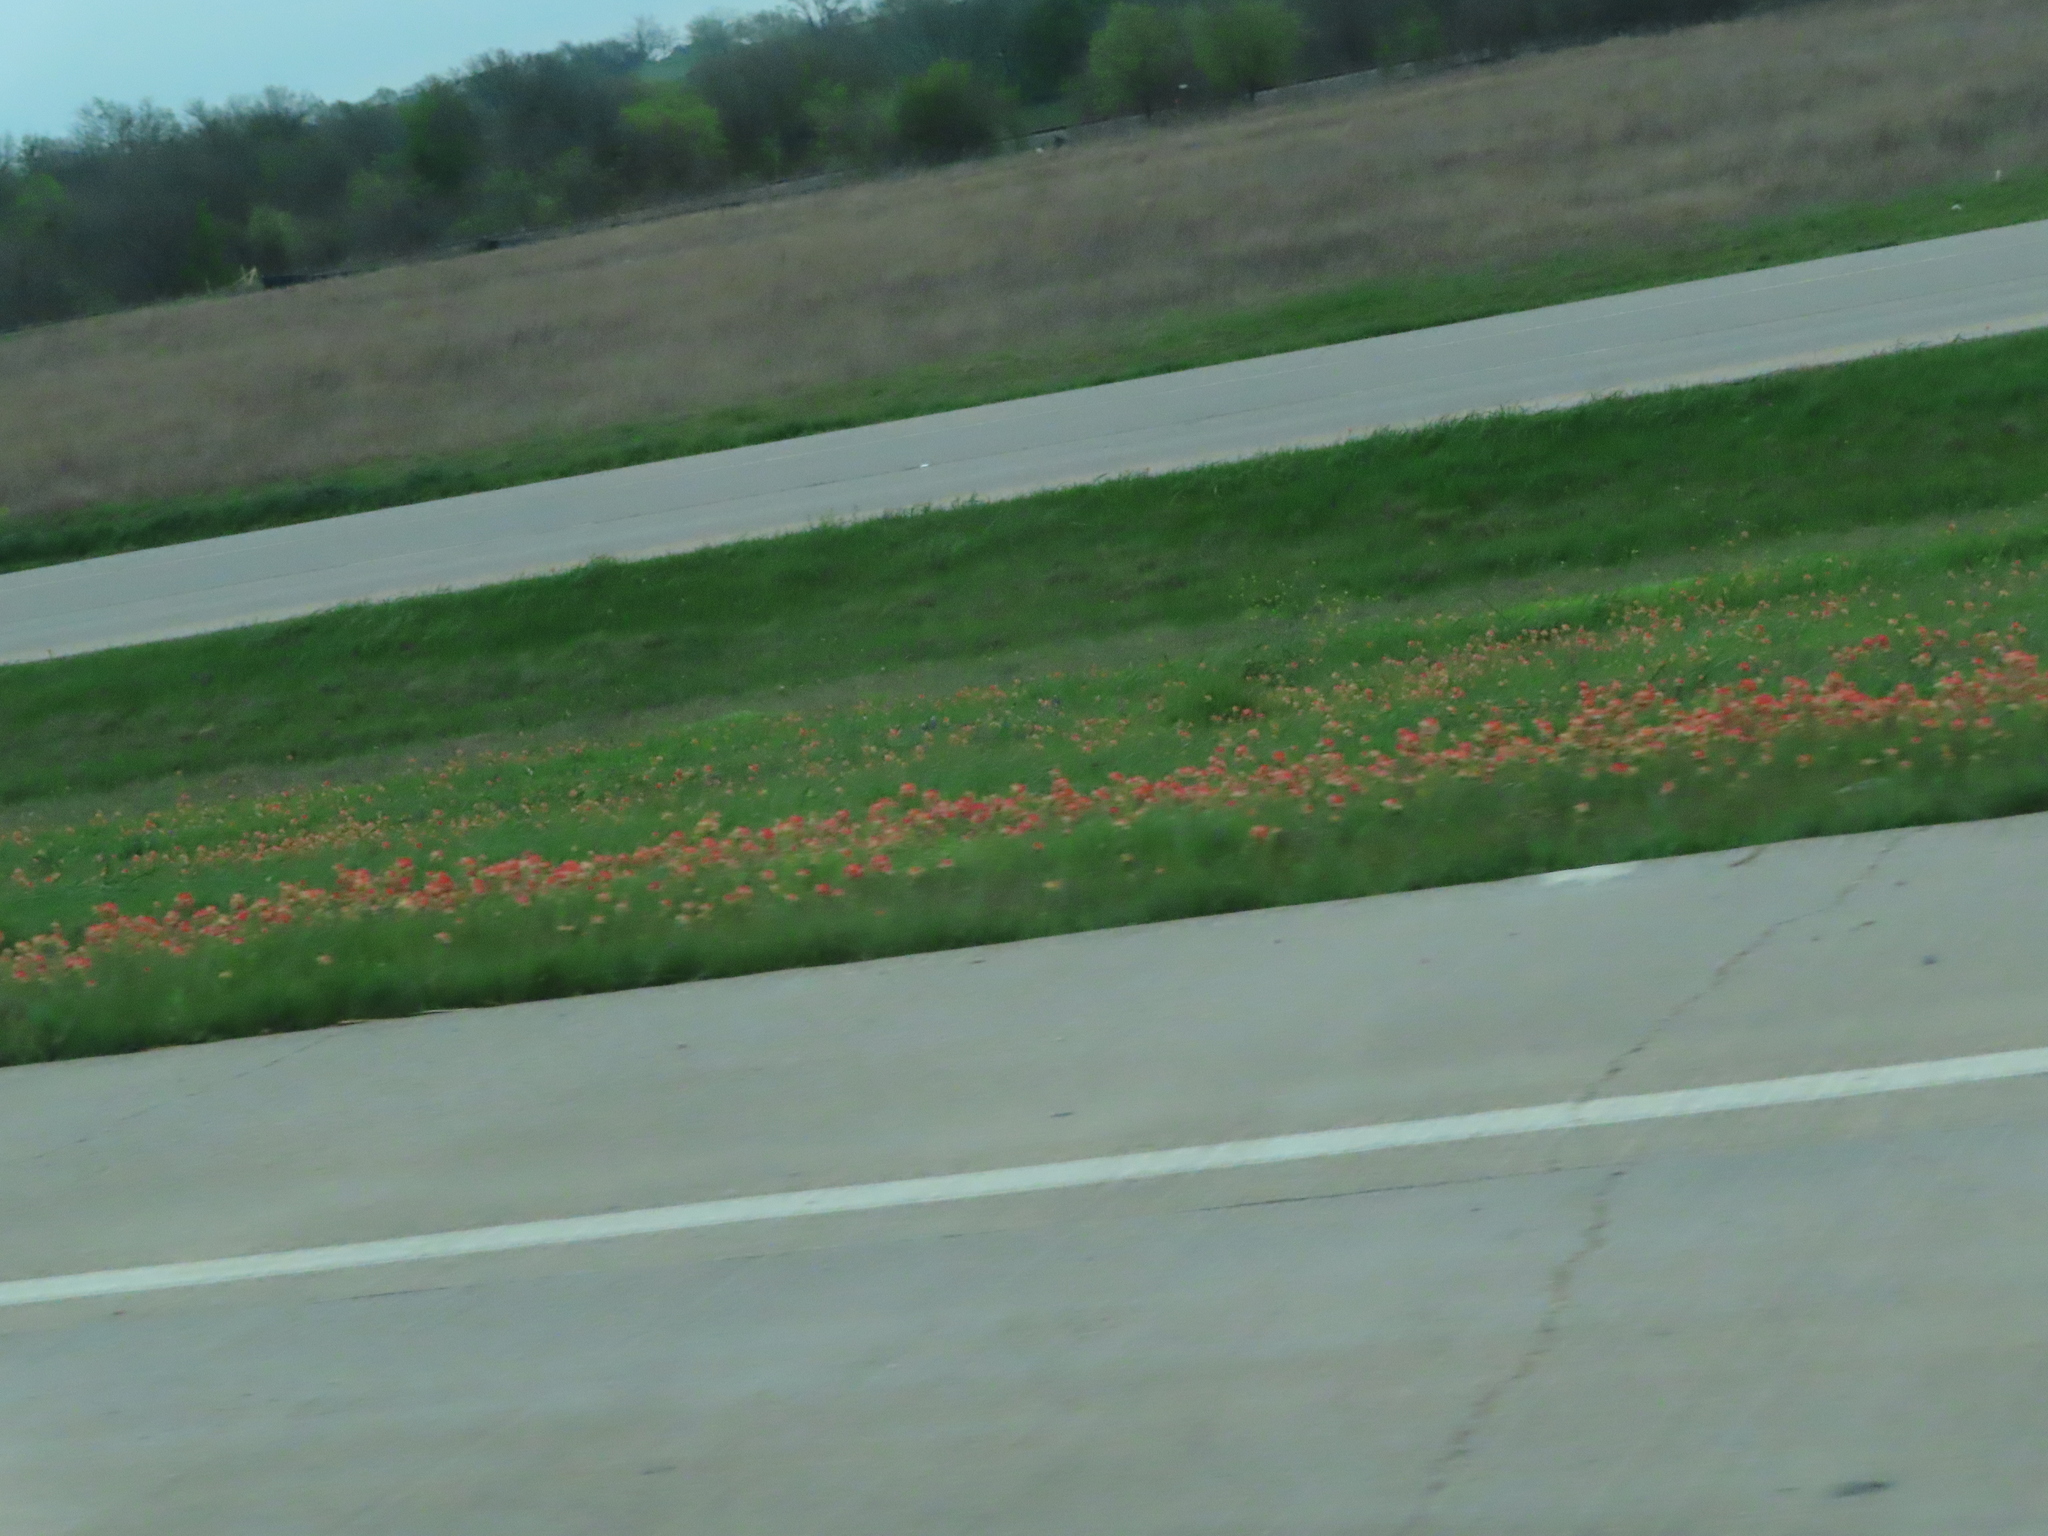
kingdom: Plantae
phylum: Tracheophyta
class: Magnoliopsida
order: Lamiales
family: Orobanchaceae
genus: Castilleja
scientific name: Castilleja indivisa
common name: Texas paintbrush
